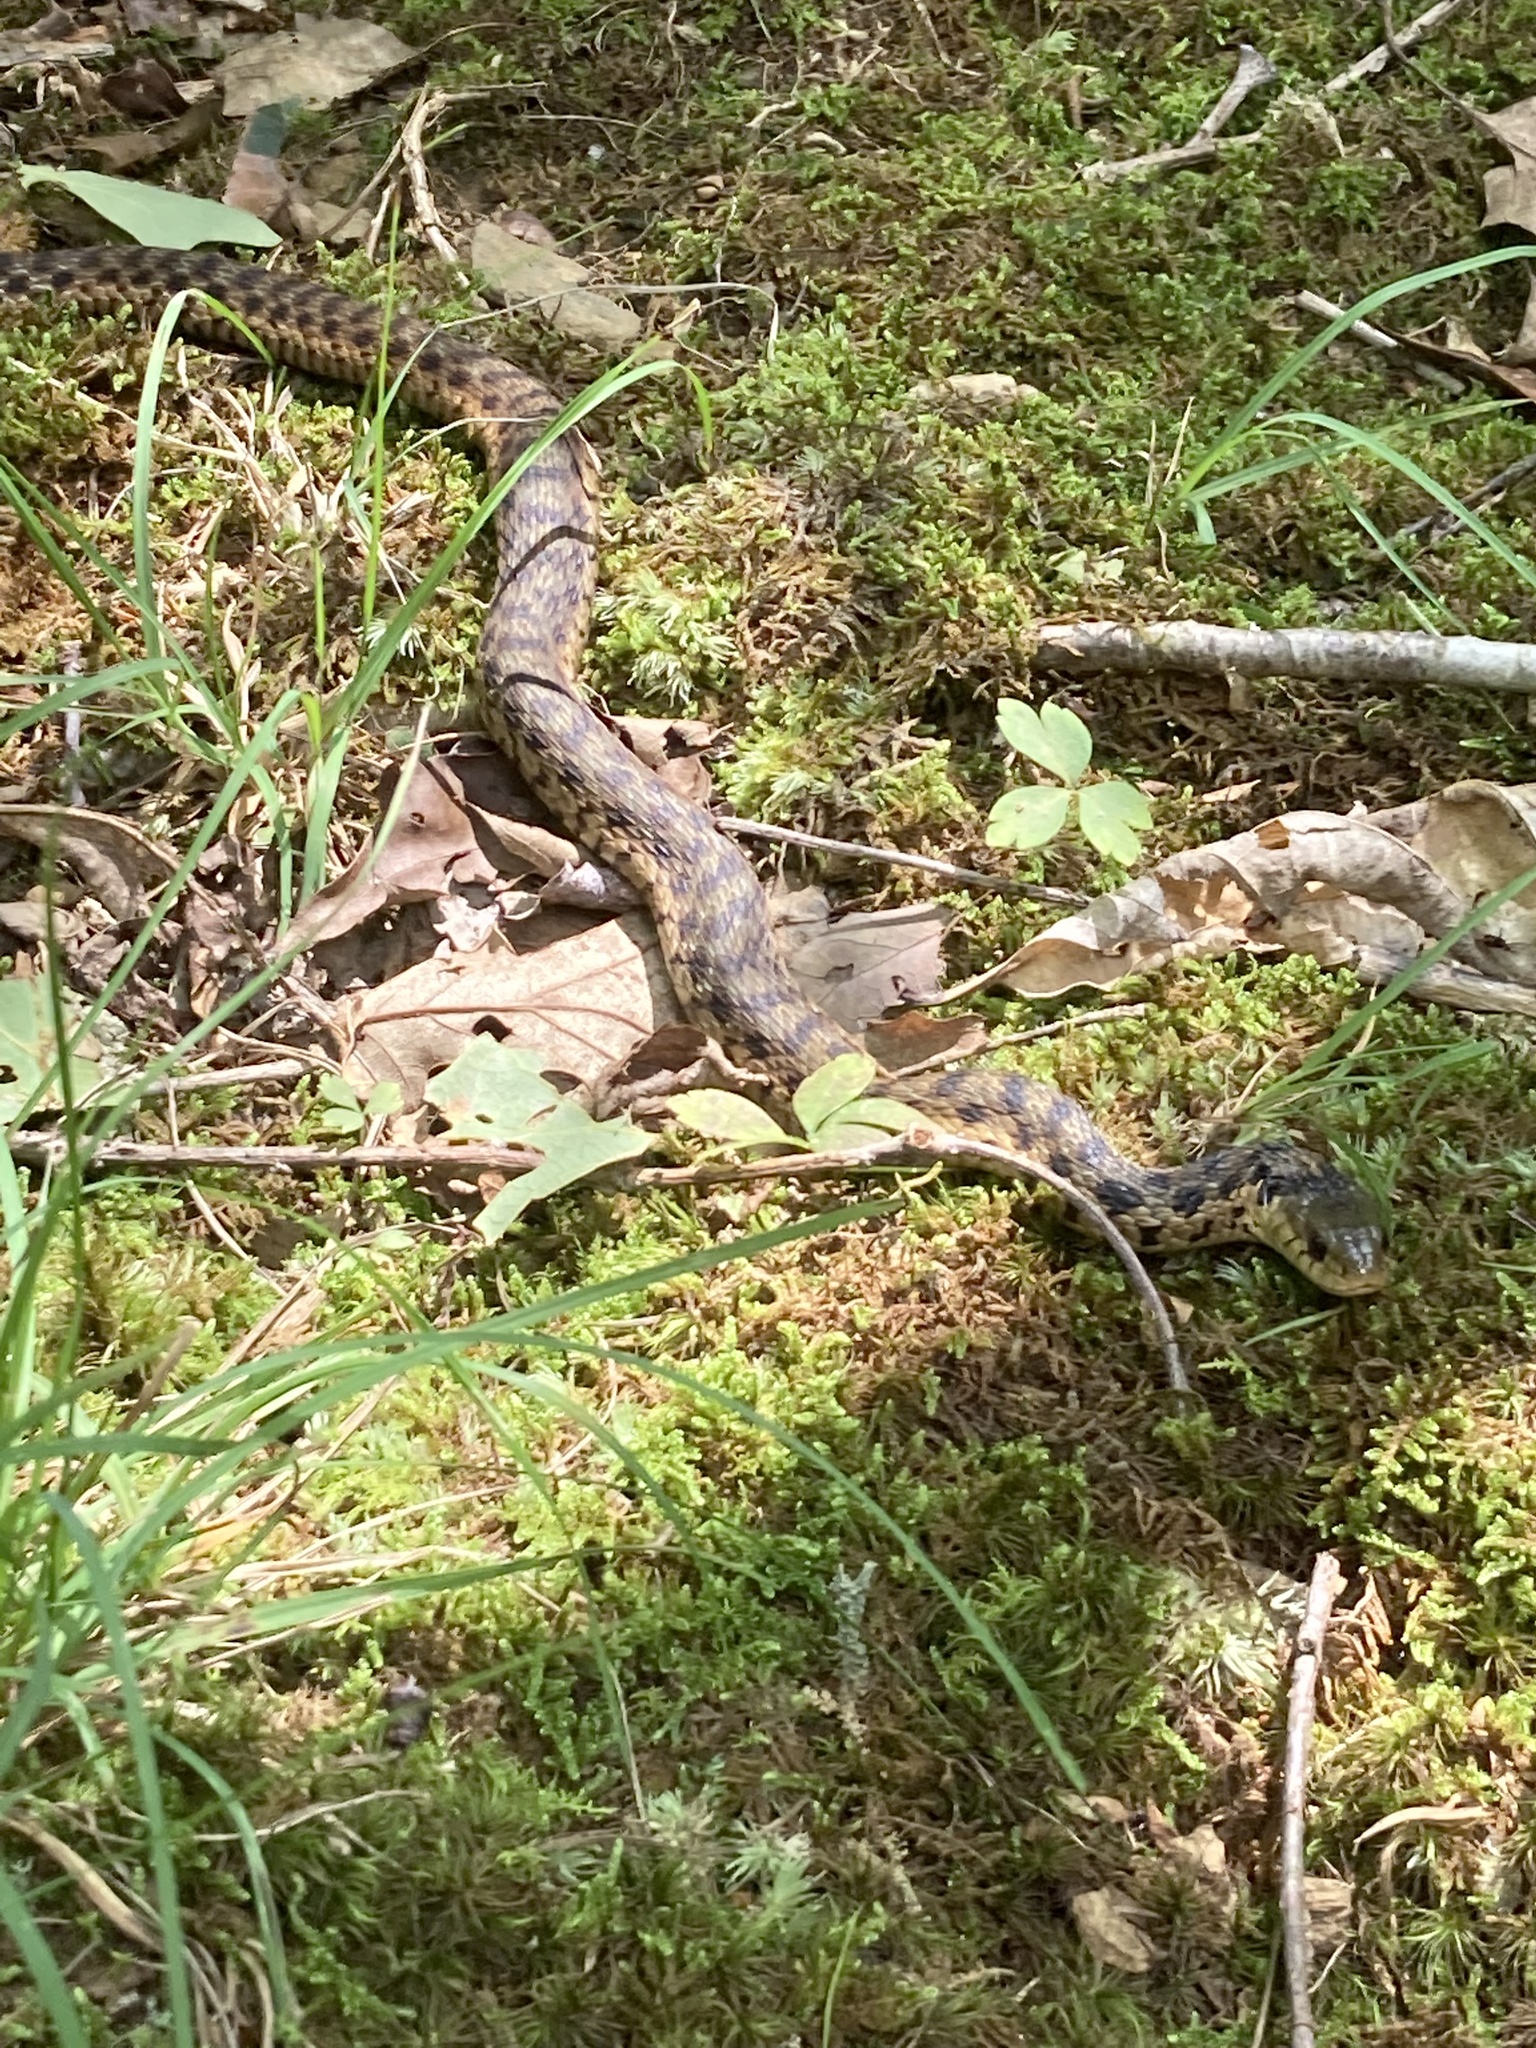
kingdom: Animalia
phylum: Chordata
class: Squamata
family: Colubridae
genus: Thamnophis
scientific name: Thamnophis sirtalis
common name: Common garter snake
